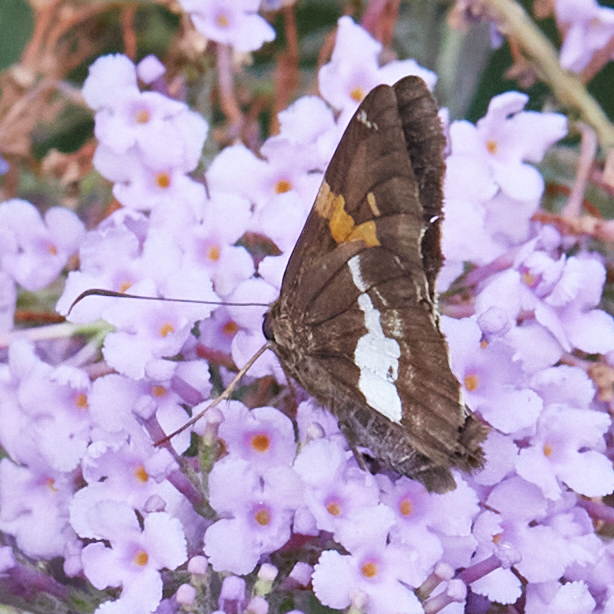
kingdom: Animalia
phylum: Arthropoda
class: Insecta
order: Lepidoptera
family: Hesperiidae
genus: Epargyreus
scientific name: Epargyreus clarus
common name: Silver-spotted skipper
